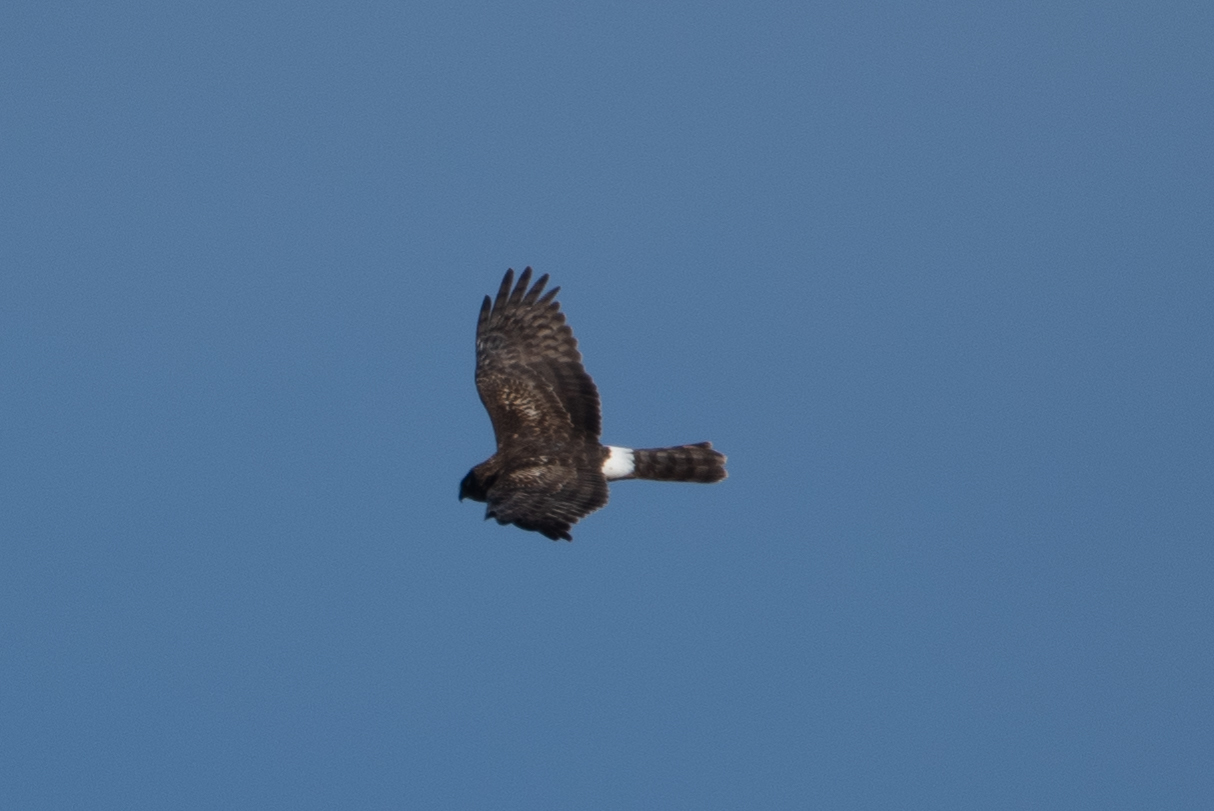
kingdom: Animalia
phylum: Chordata
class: Aves
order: Accipitriformes
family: Accipitridae
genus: Circus
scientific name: Circus cyaneus
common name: Hen harrier
